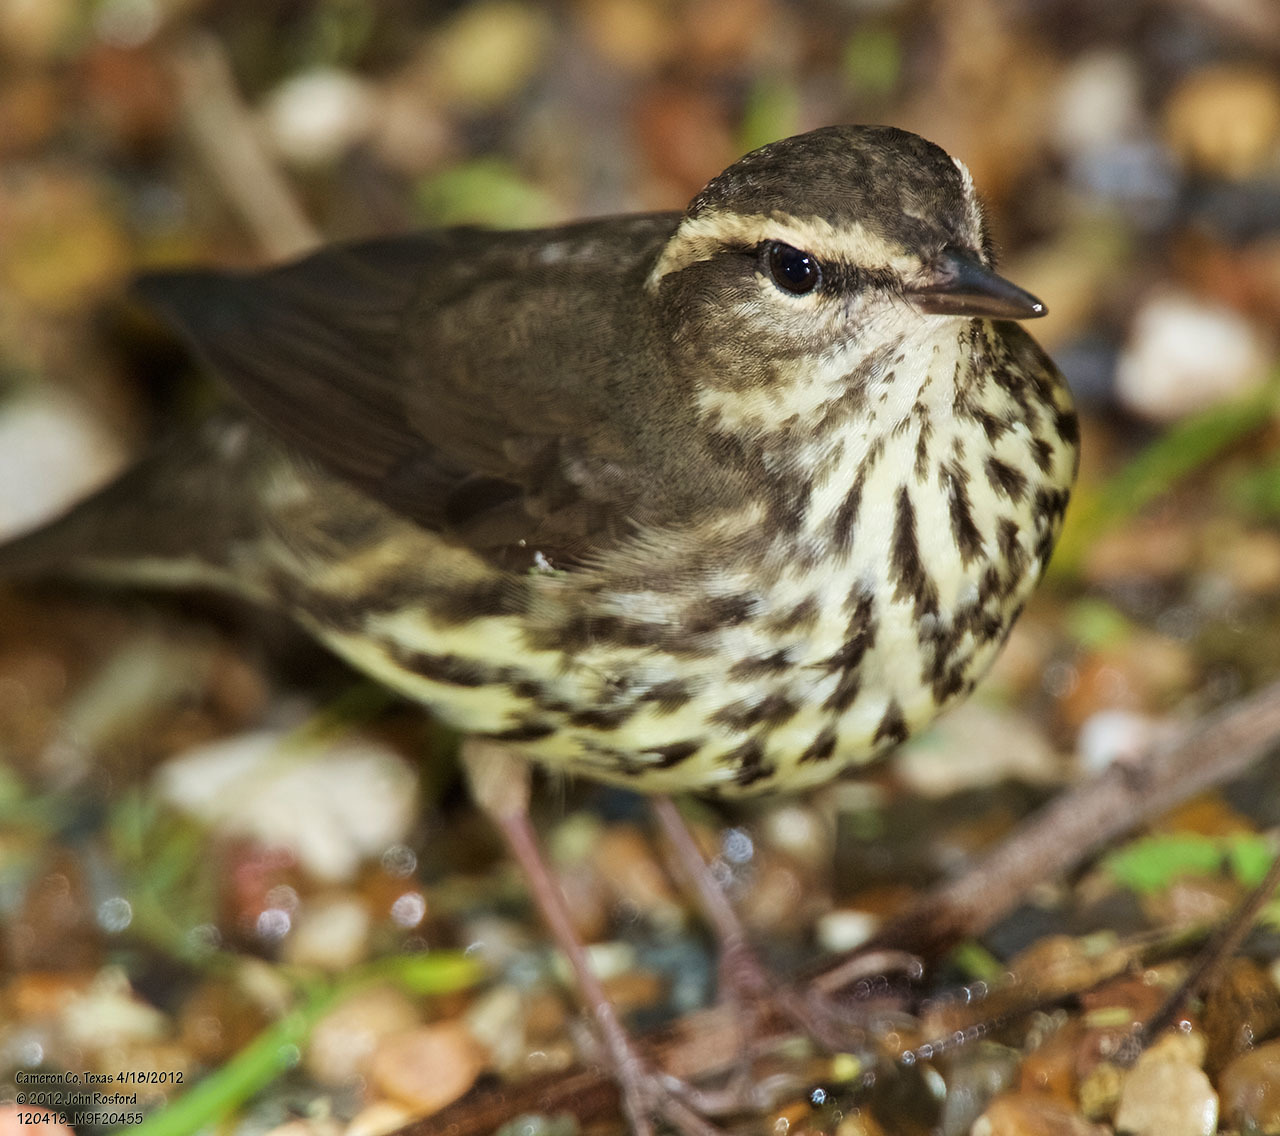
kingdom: Animalia
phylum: Chordata
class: Aves
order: Passeriformes
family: Parulidae
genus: Parkesia
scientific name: Parkesia noveboracensis
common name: Northern waterthrush
